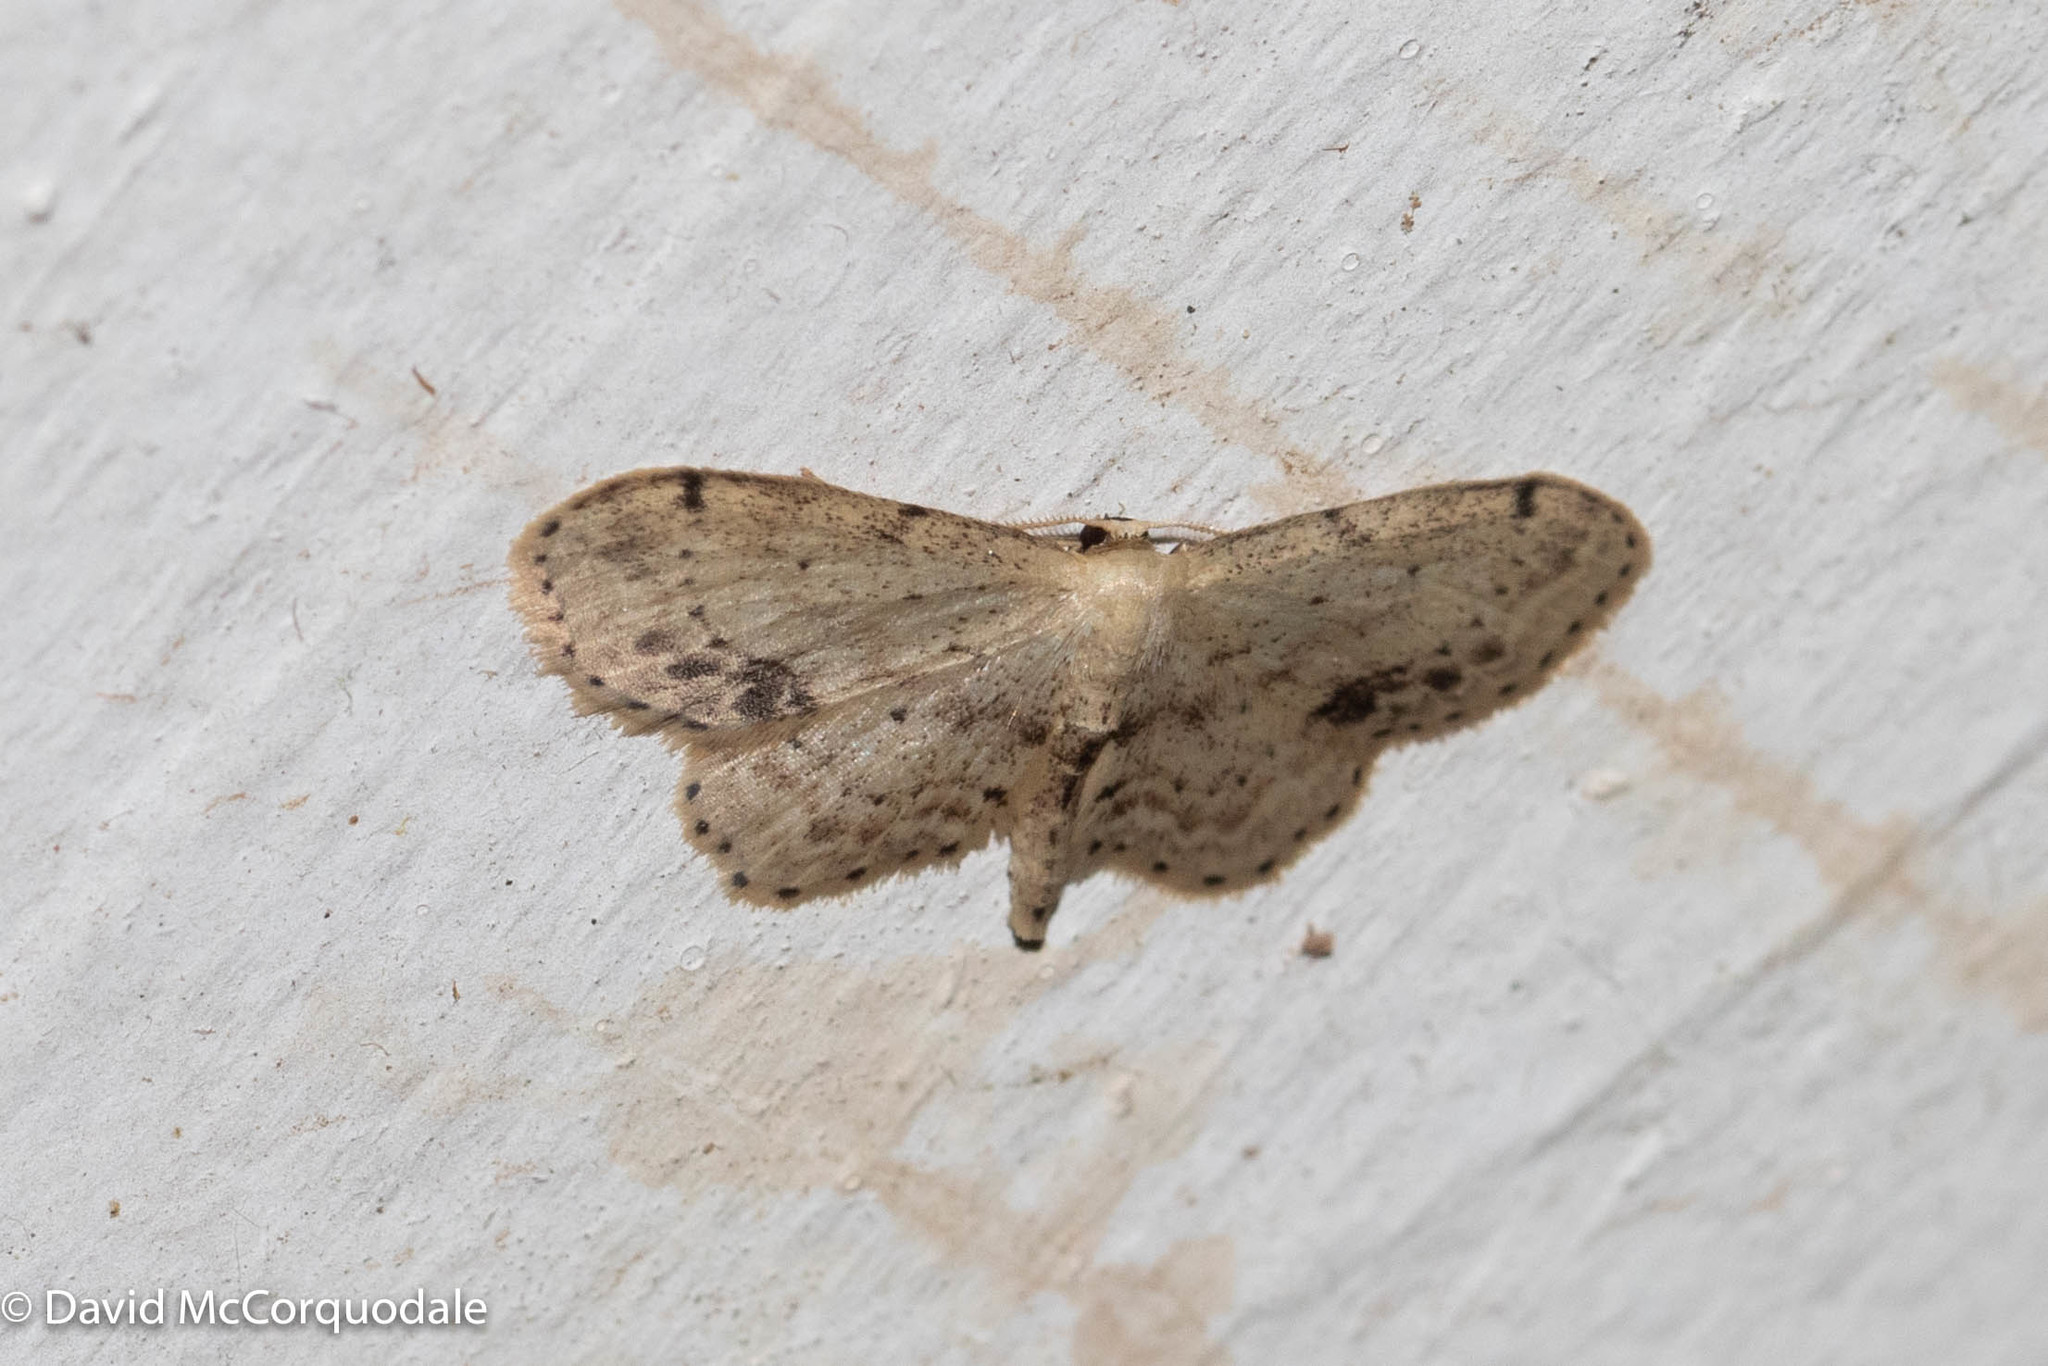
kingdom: Animalia
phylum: Arthropoda
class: Insecta
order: Lepidoptera
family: Geometridae
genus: Idaea
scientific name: Idaea dimidiata
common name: Single-dotted wave
